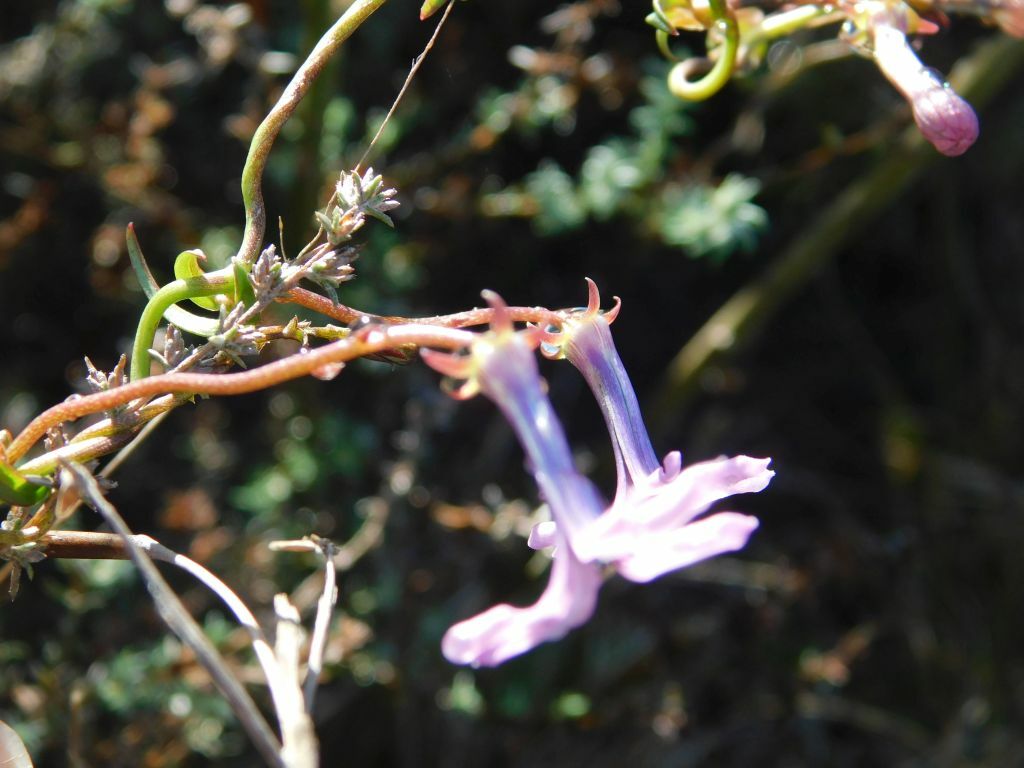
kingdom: Plantae
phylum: Tracheophyta
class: Magnoliopsida
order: Asterales
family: Campanulaceae
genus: Cyphia
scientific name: Cyphia volubilis
